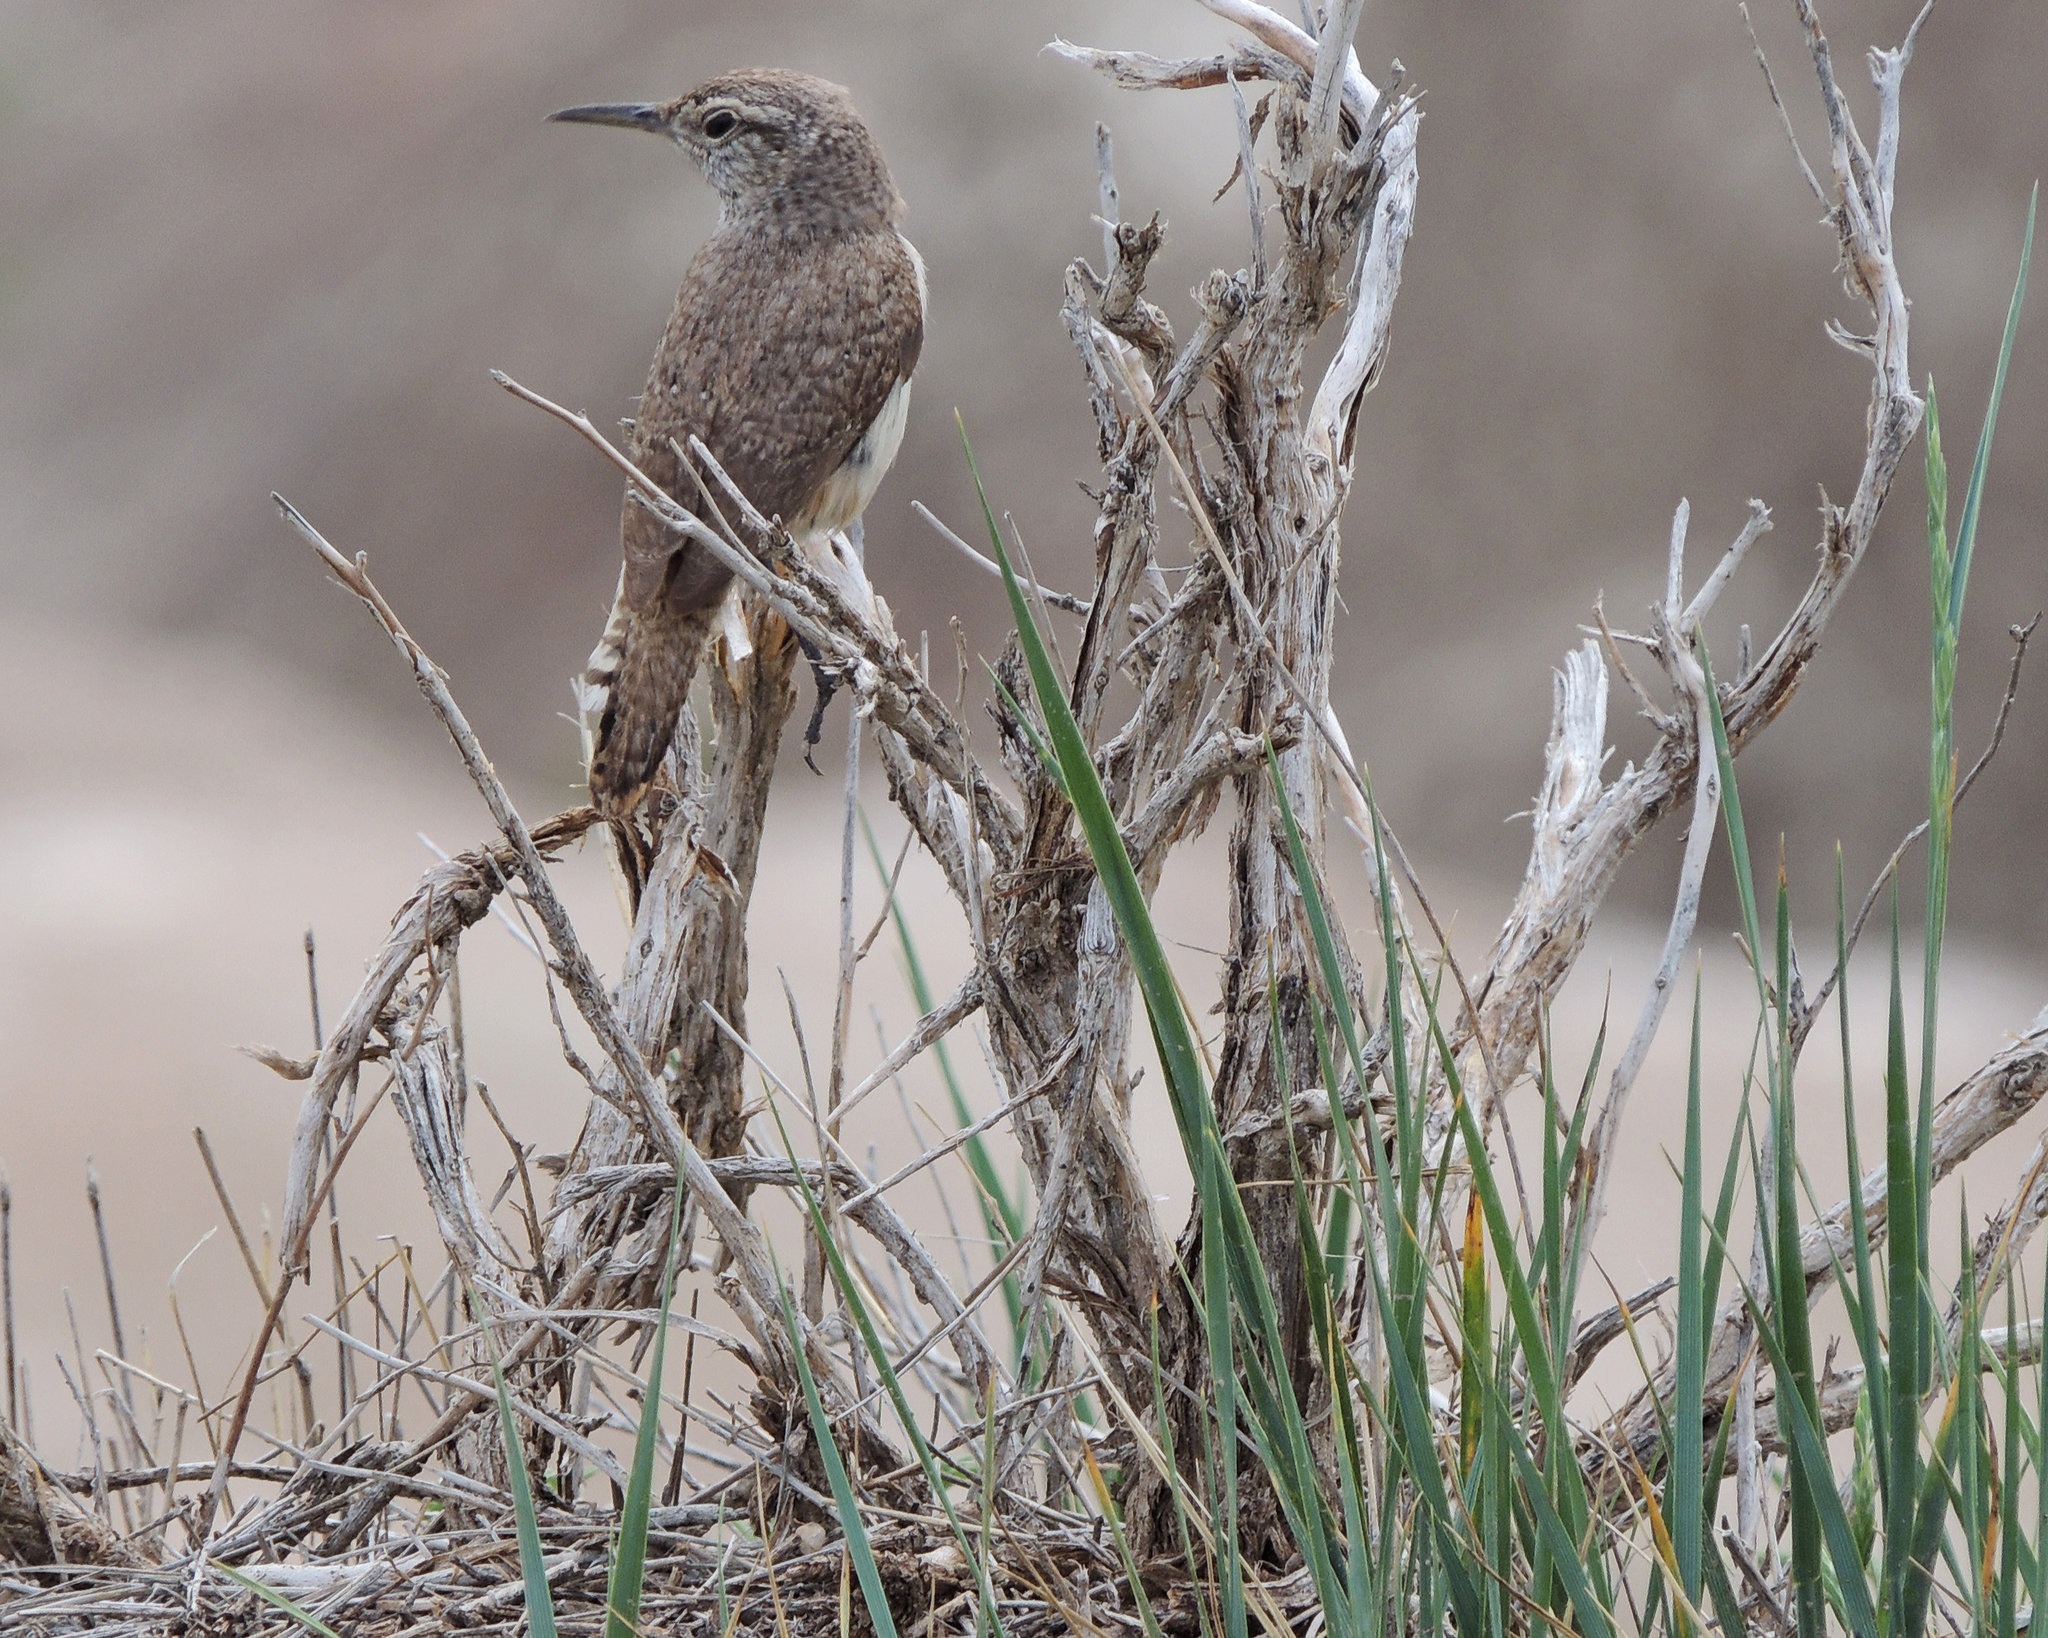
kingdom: Animalia
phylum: Chordata
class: Aves
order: Passeriformes
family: Troglodytidae
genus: Salpinctes
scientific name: Salpinctes obsoletus
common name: Rock wren
